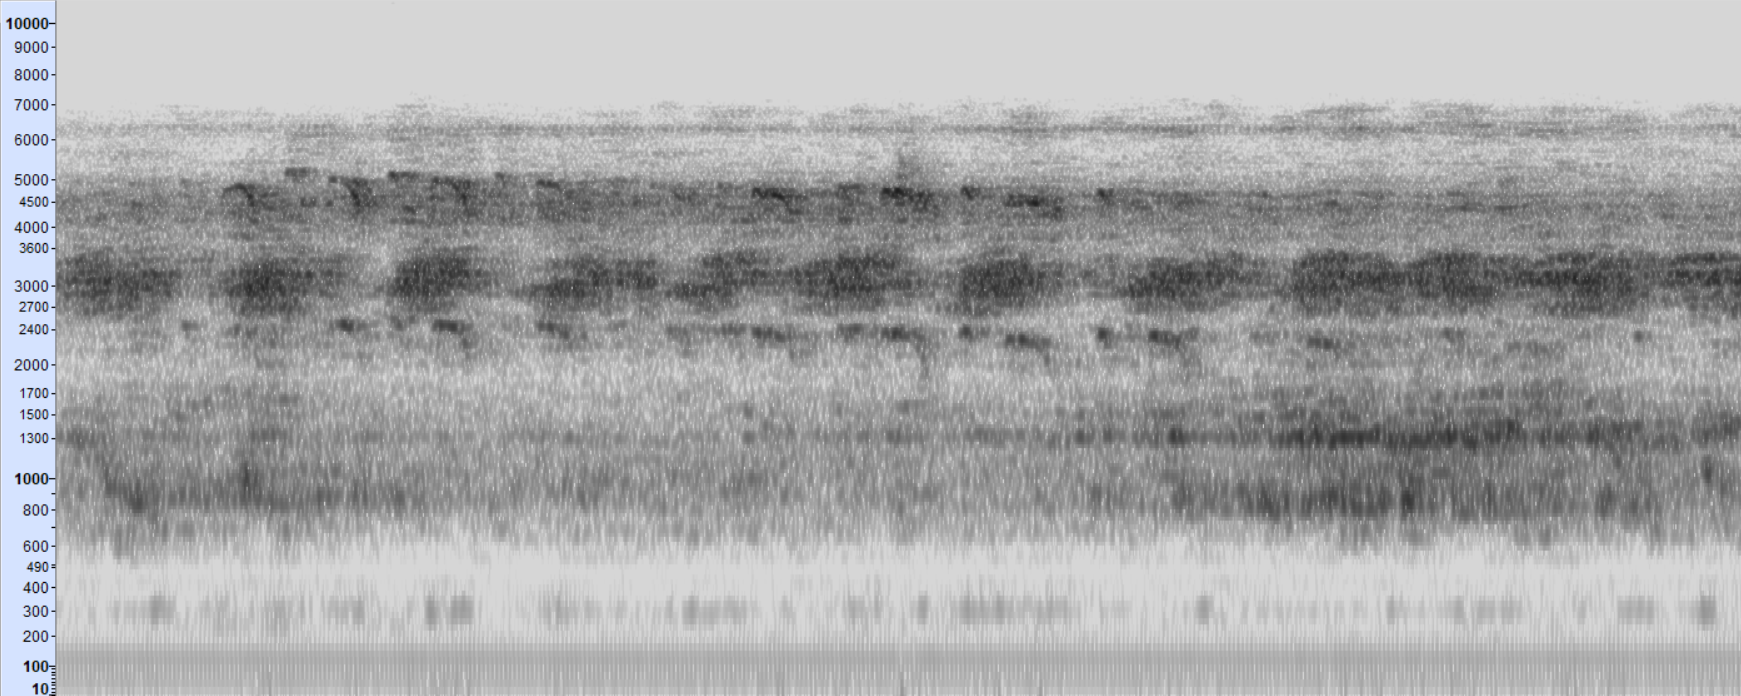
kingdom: Animalia
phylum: Chordata
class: Aves
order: Charadriiformes
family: Charadriidae
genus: Charadrius
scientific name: Charadrius vociferus
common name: Killdeer
